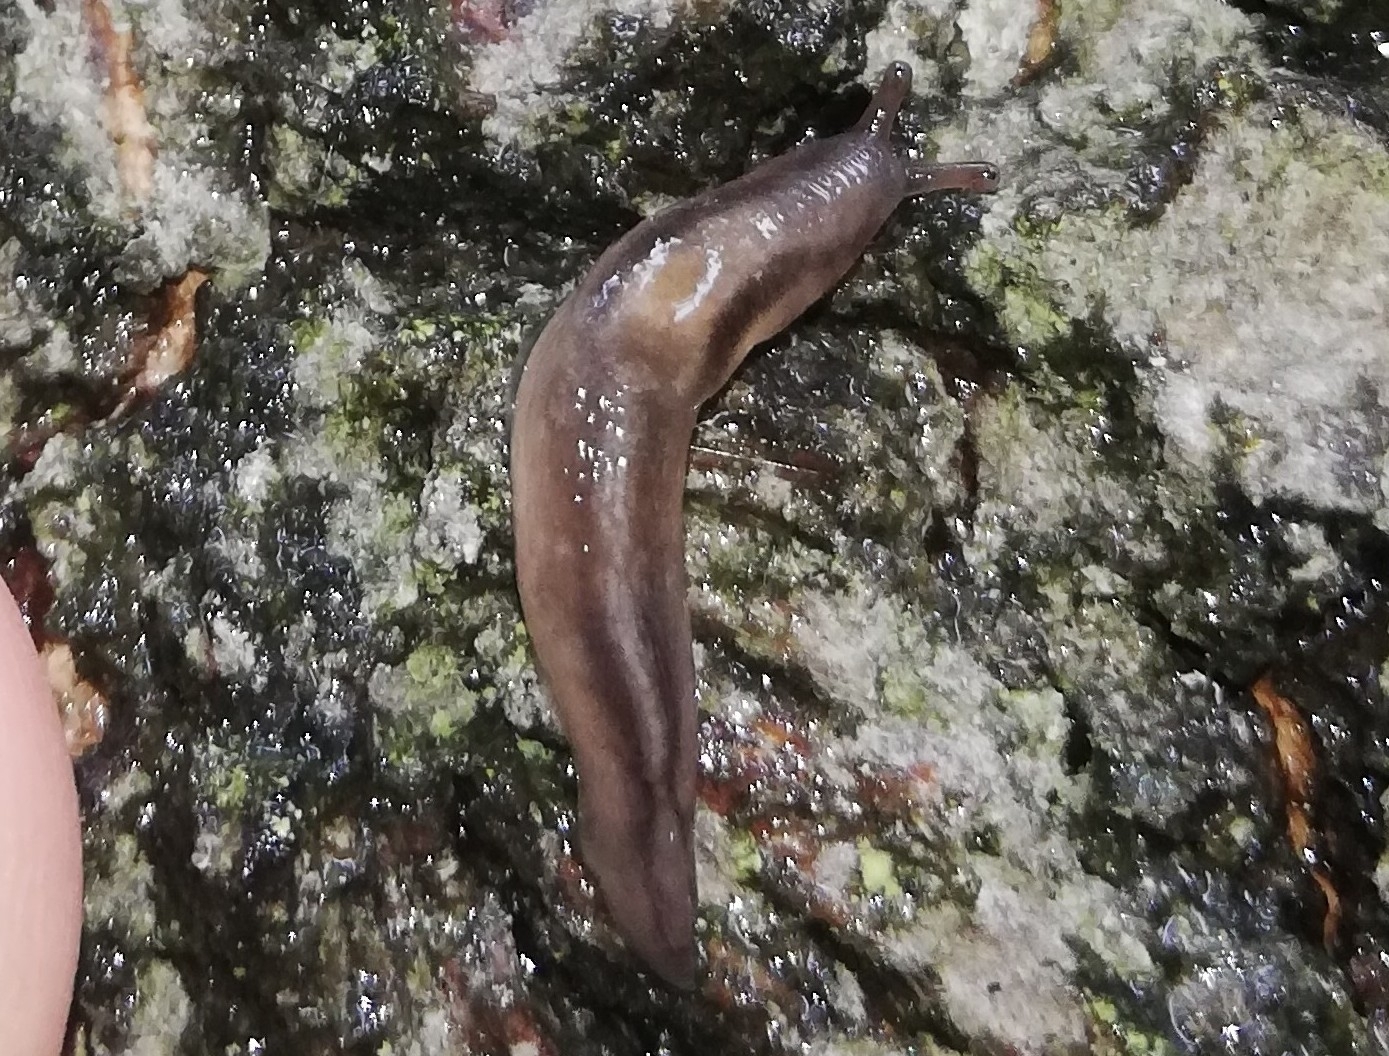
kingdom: Animalia
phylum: Mollusca
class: Gastropoda
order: Stylommatophora
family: Limacidae
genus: Lehmannia
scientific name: Lehmannia marginata
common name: Tree slug
